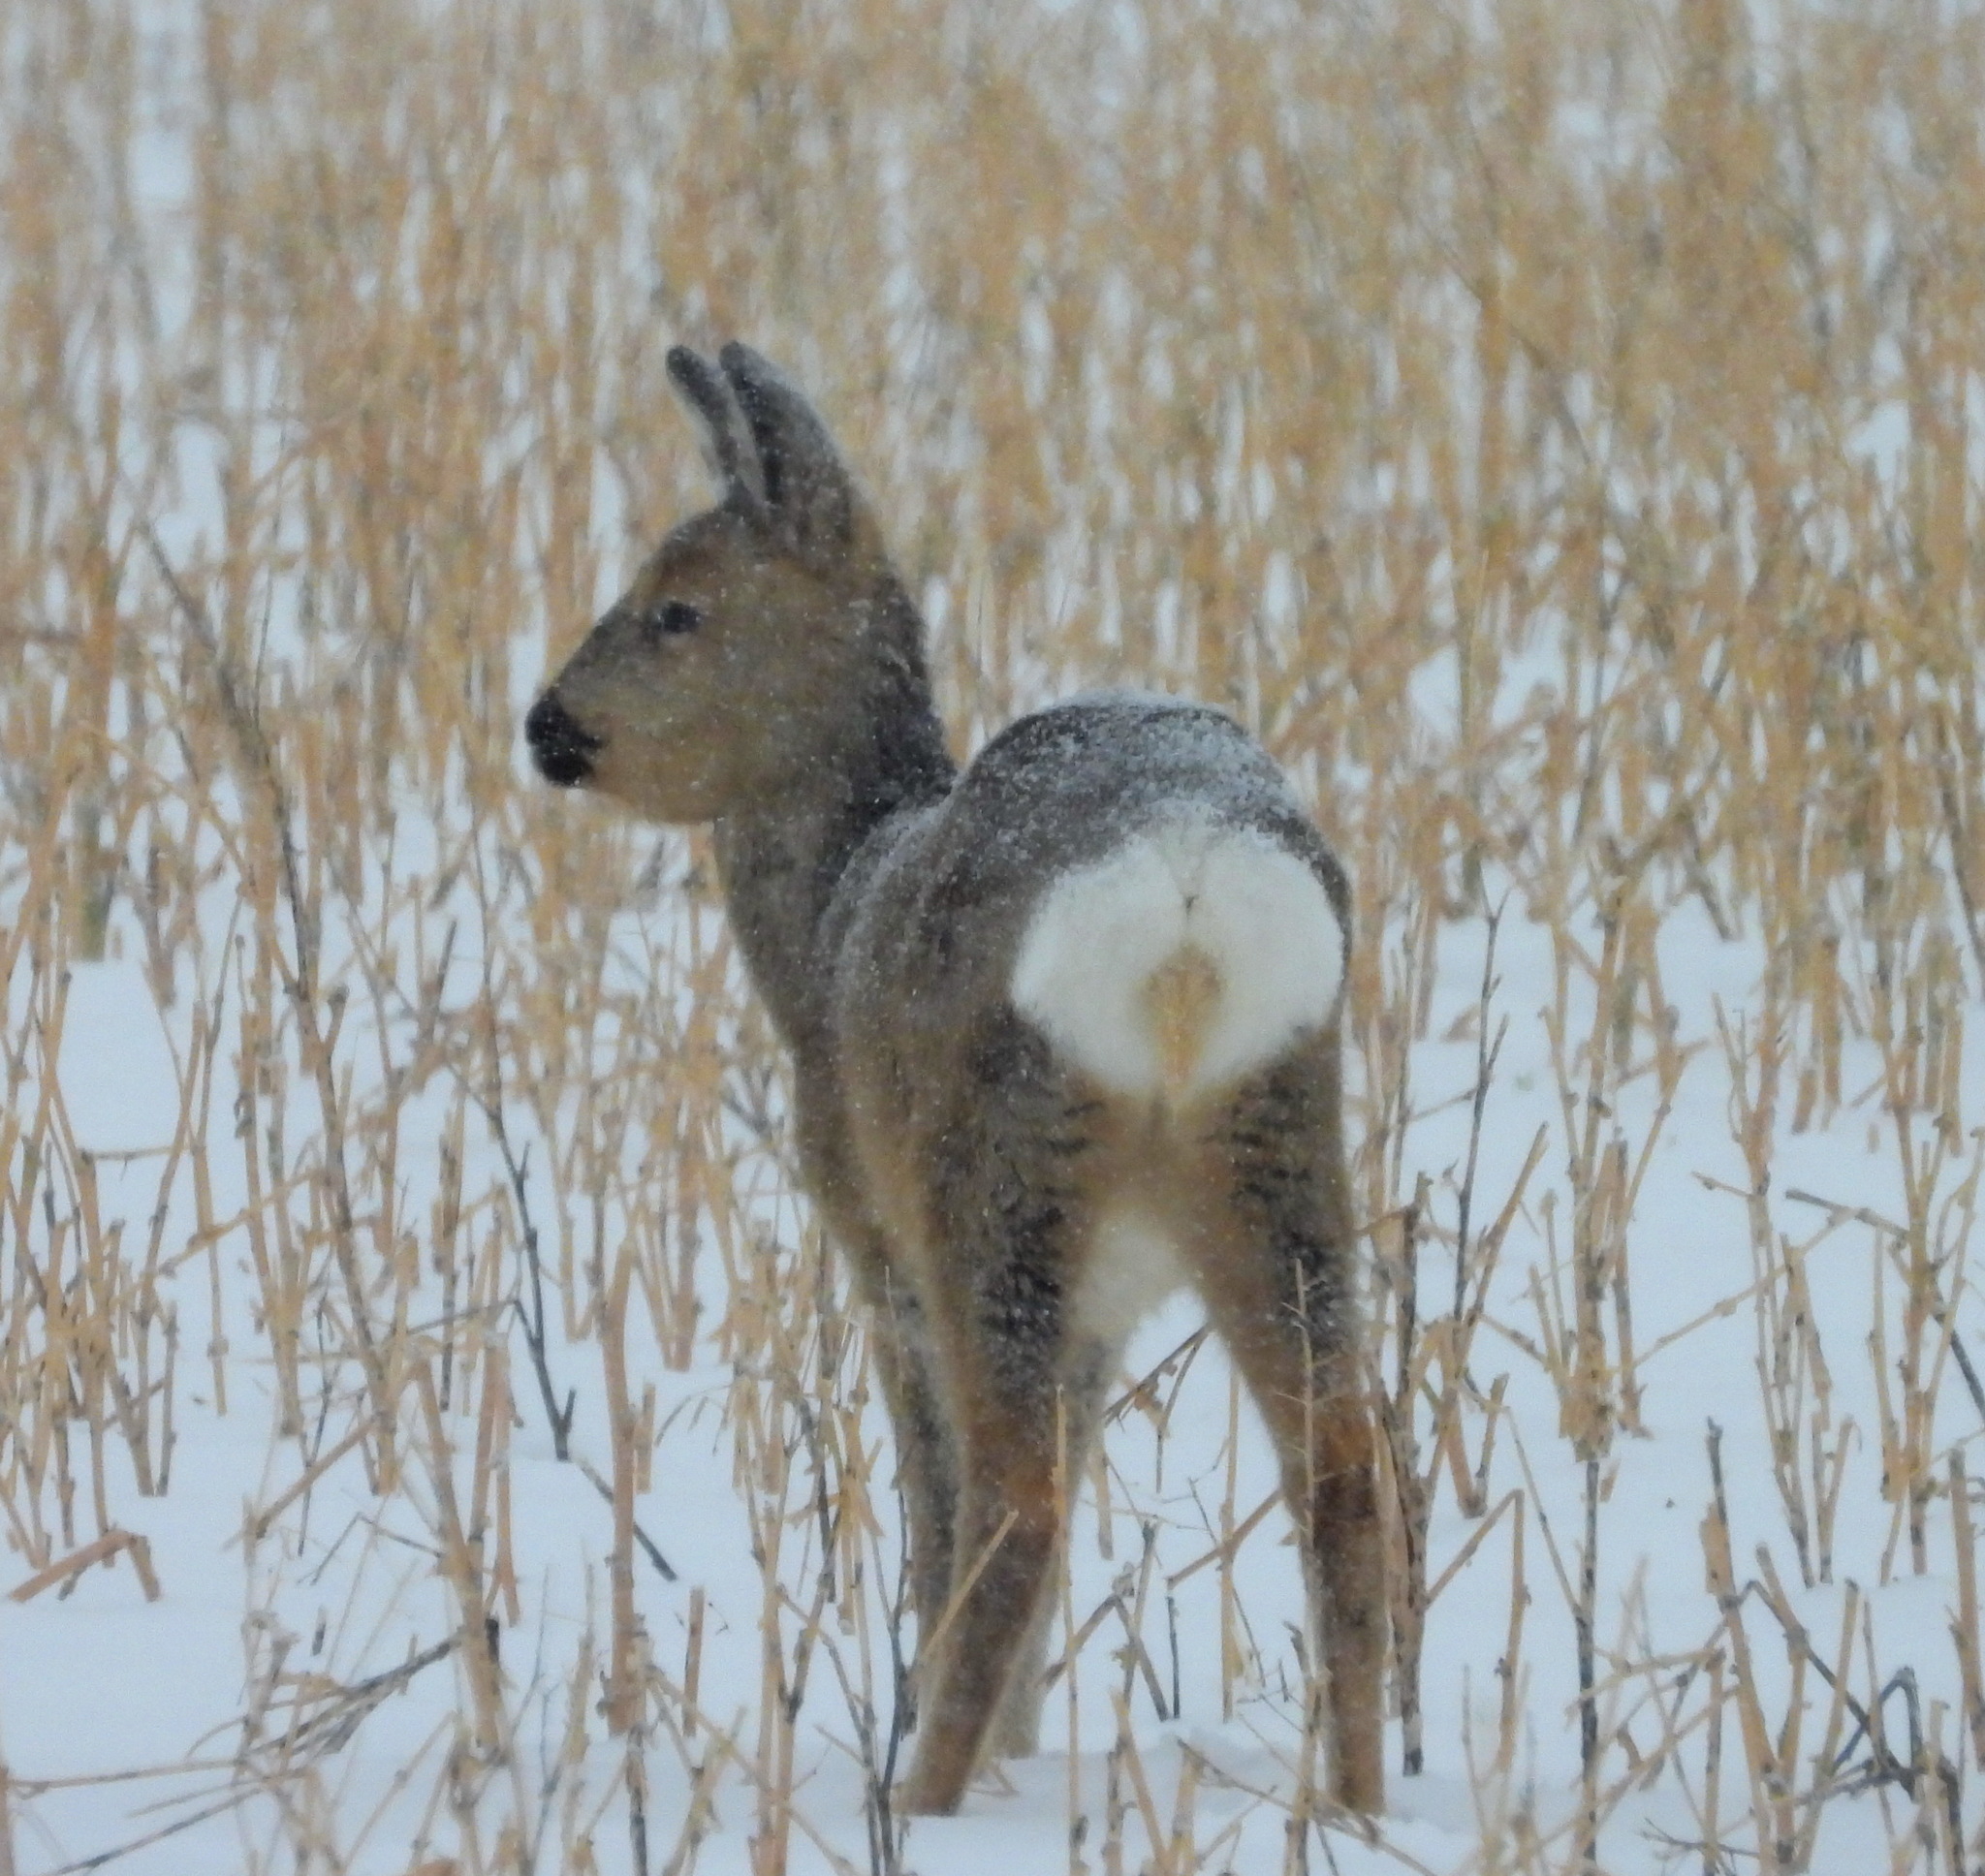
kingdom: Animalia
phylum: Chordata
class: Mammalia
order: Artiodactyla
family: Cervidae
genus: Capreolus
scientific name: Capreolus pygargus
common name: Siberian roe
